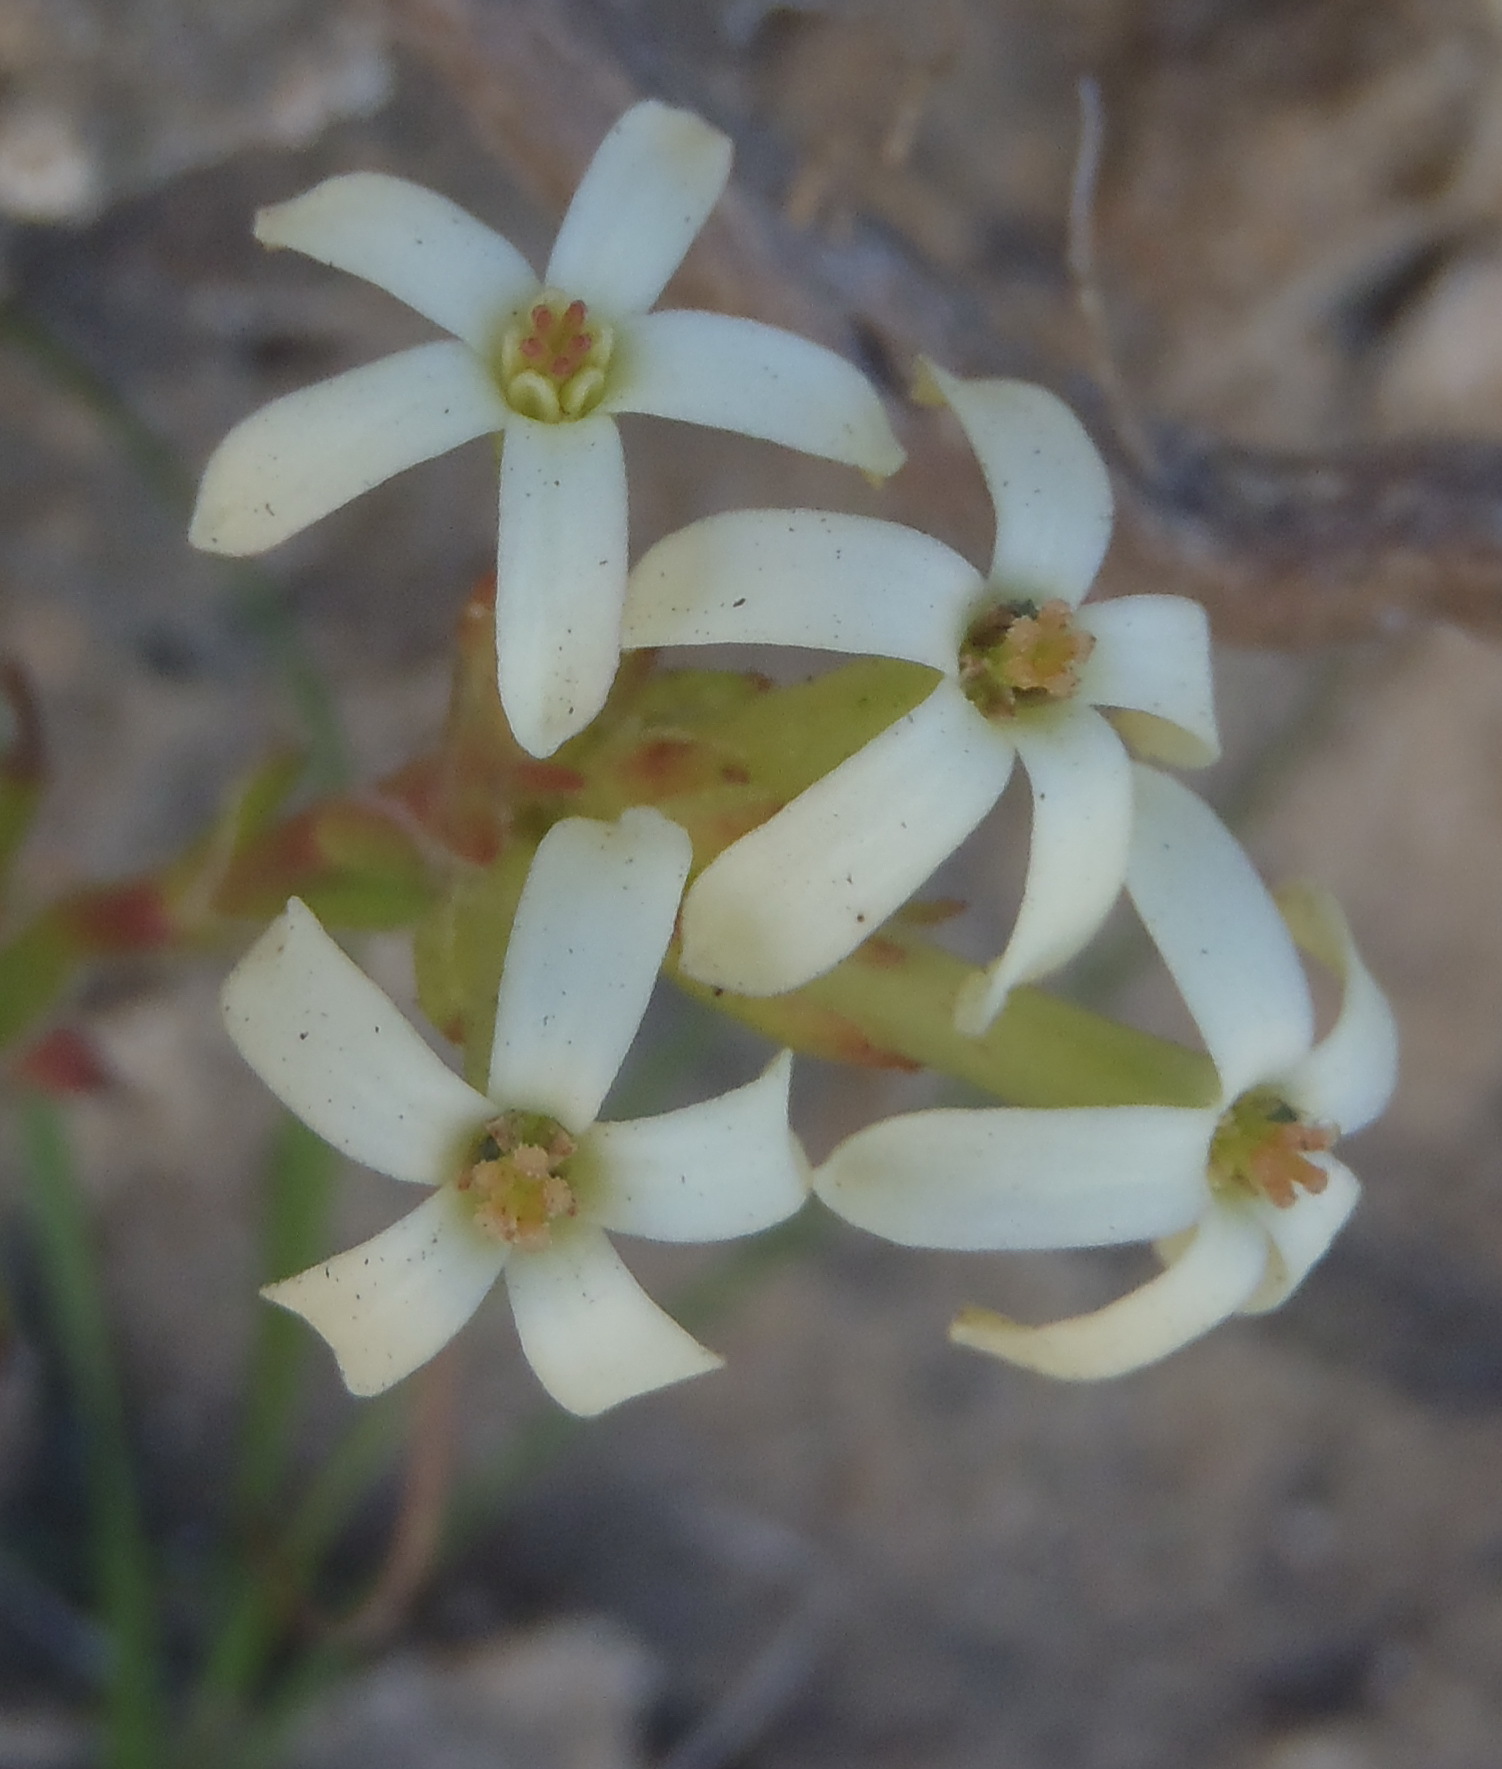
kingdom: Plantae
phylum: Tracheophyta
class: Magnoliopsida
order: Saxifragales
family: Crassulaceae
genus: Crassula
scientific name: Crassula fascicularis
